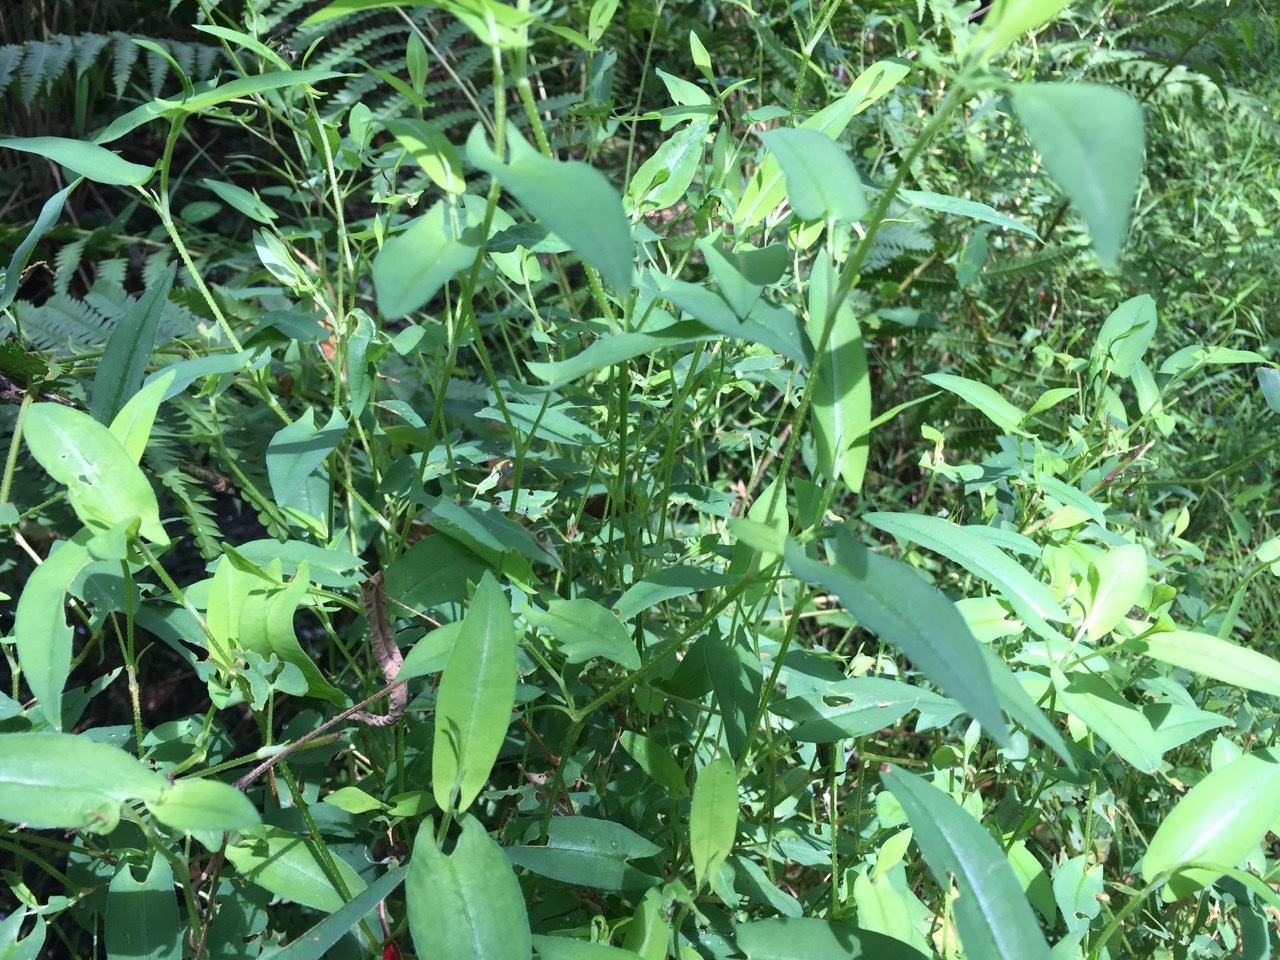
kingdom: Plantae
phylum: Tracheophyta
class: Magnoliopsida
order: Caryophyllales
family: Polygonaceae
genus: Persicaria
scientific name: Persicaria sagittata
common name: American tearthumb
